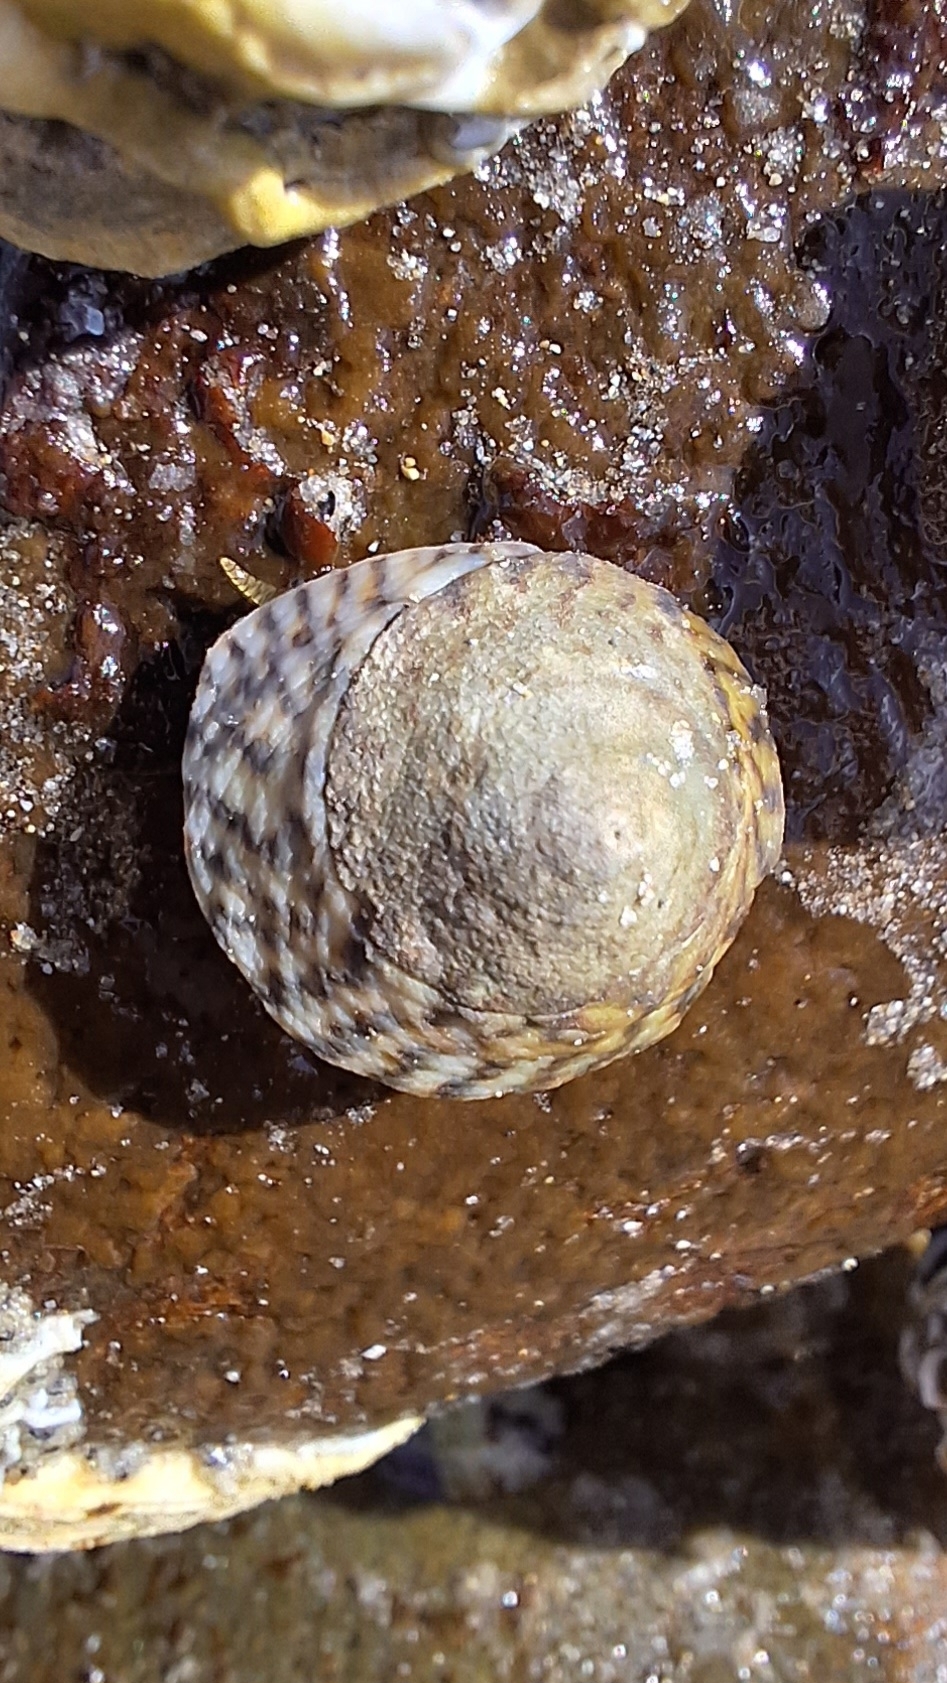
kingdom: Animalia
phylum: Mollusca
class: Gastropoda
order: Littorinimorpha
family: Littorinidae
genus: Bembicium
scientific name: Bembicium nanum
